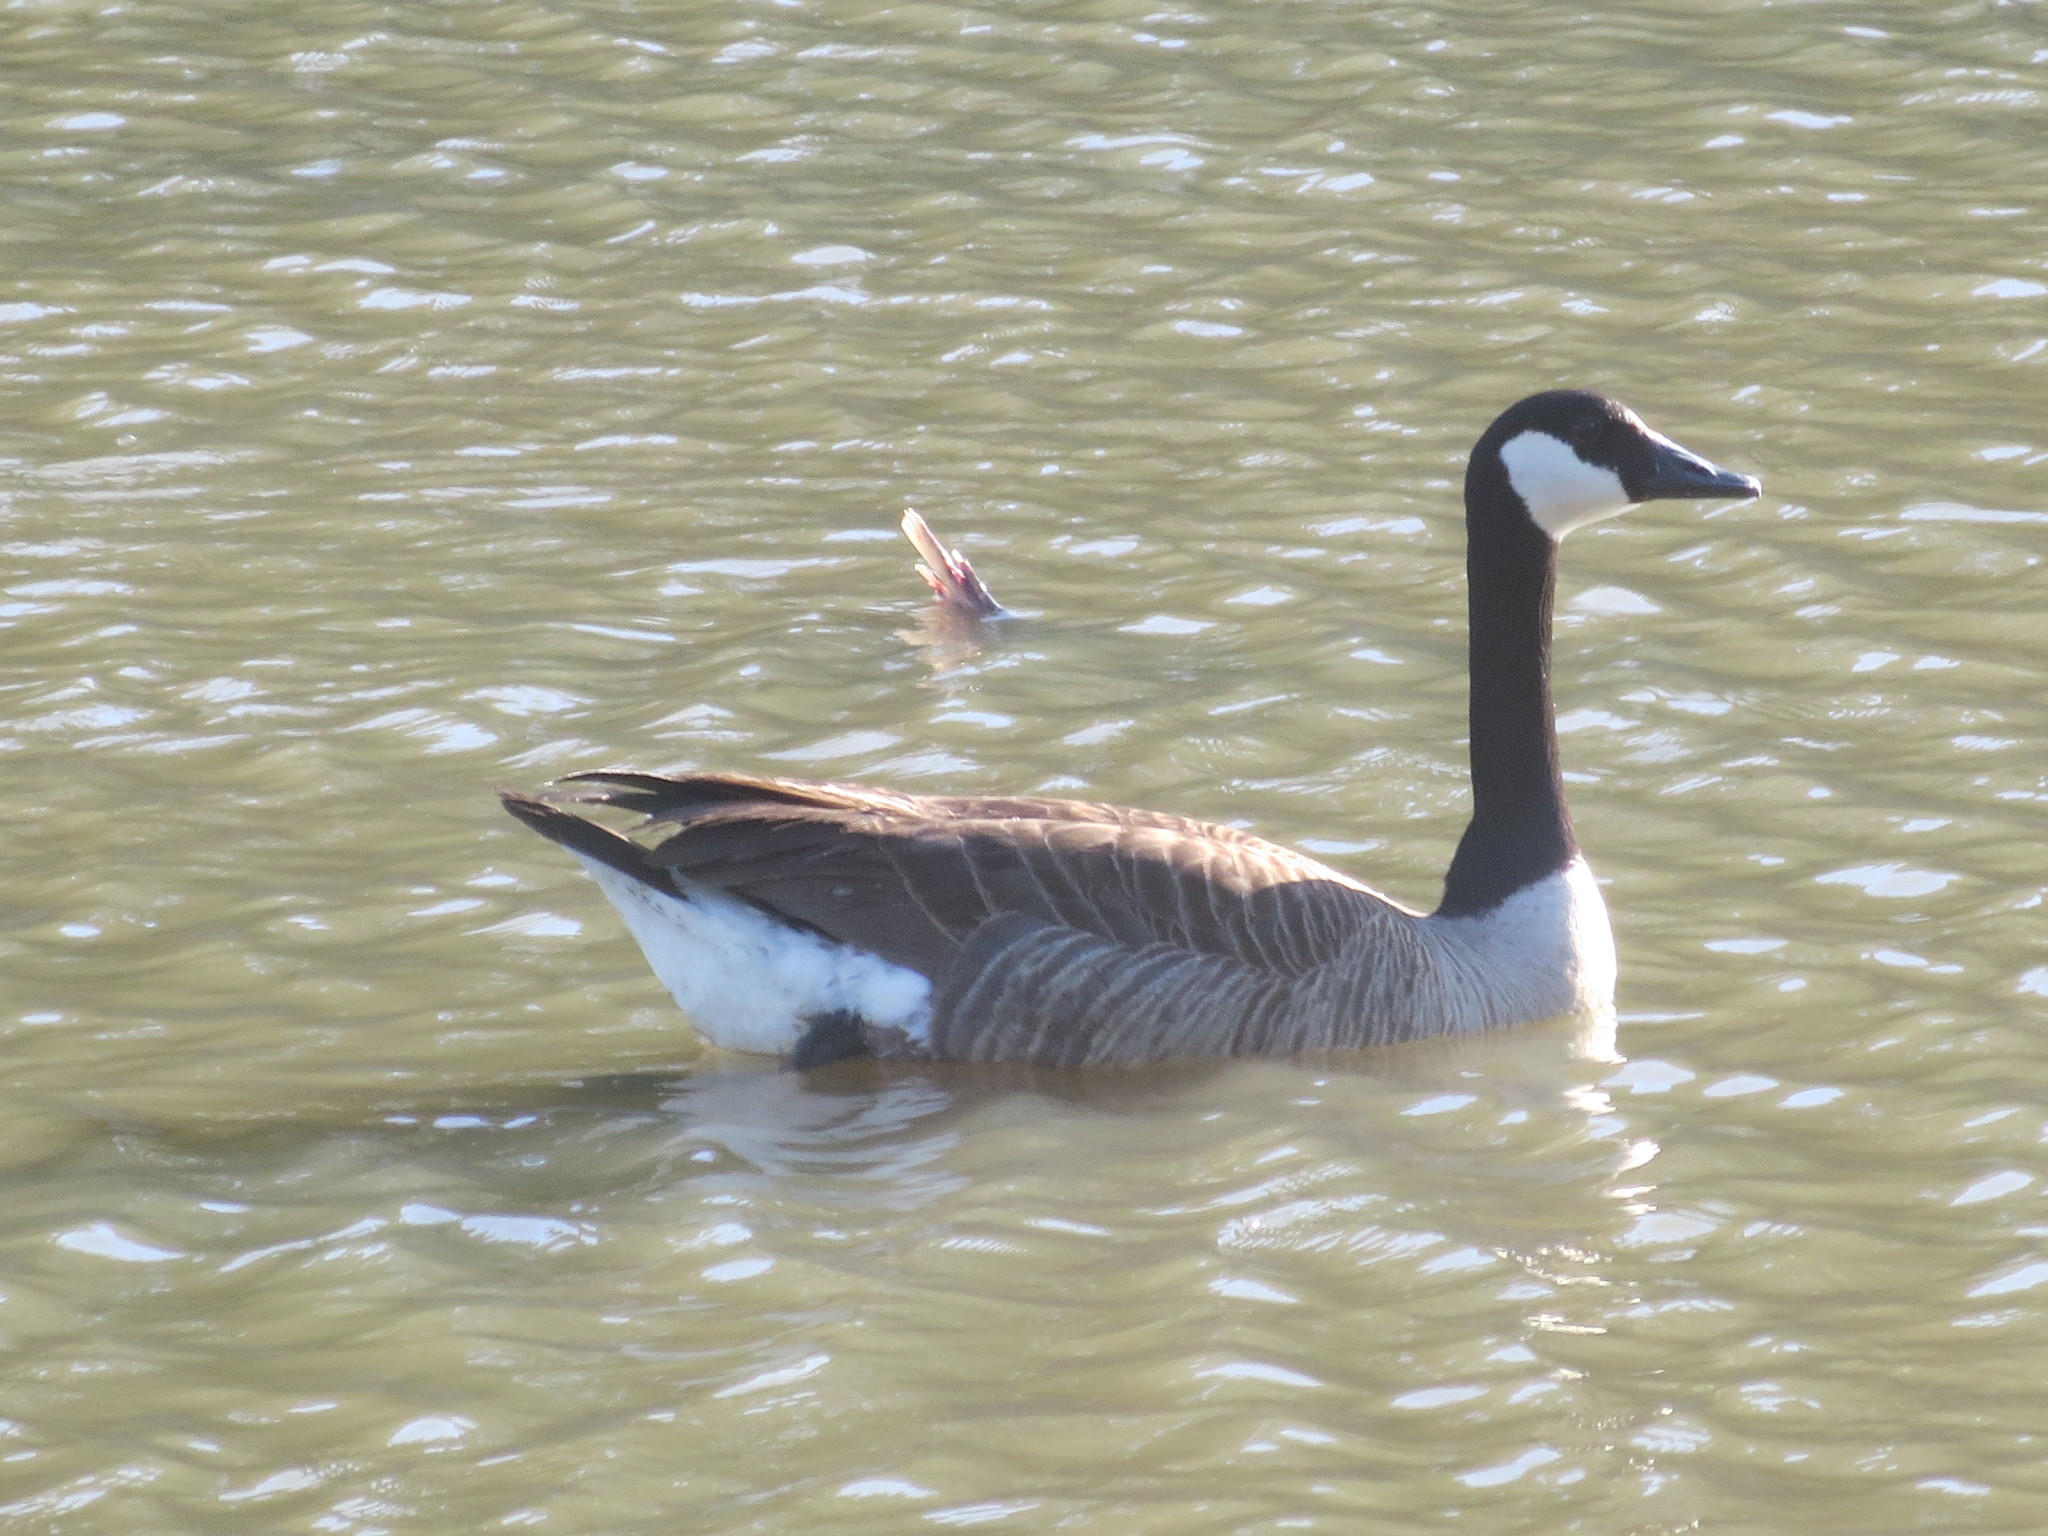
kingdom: Animalia
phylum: Chordata
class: Aves
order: Anseriformes
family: Anatidae
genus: Branta
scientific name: Branta canadensis
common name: Canada goose
